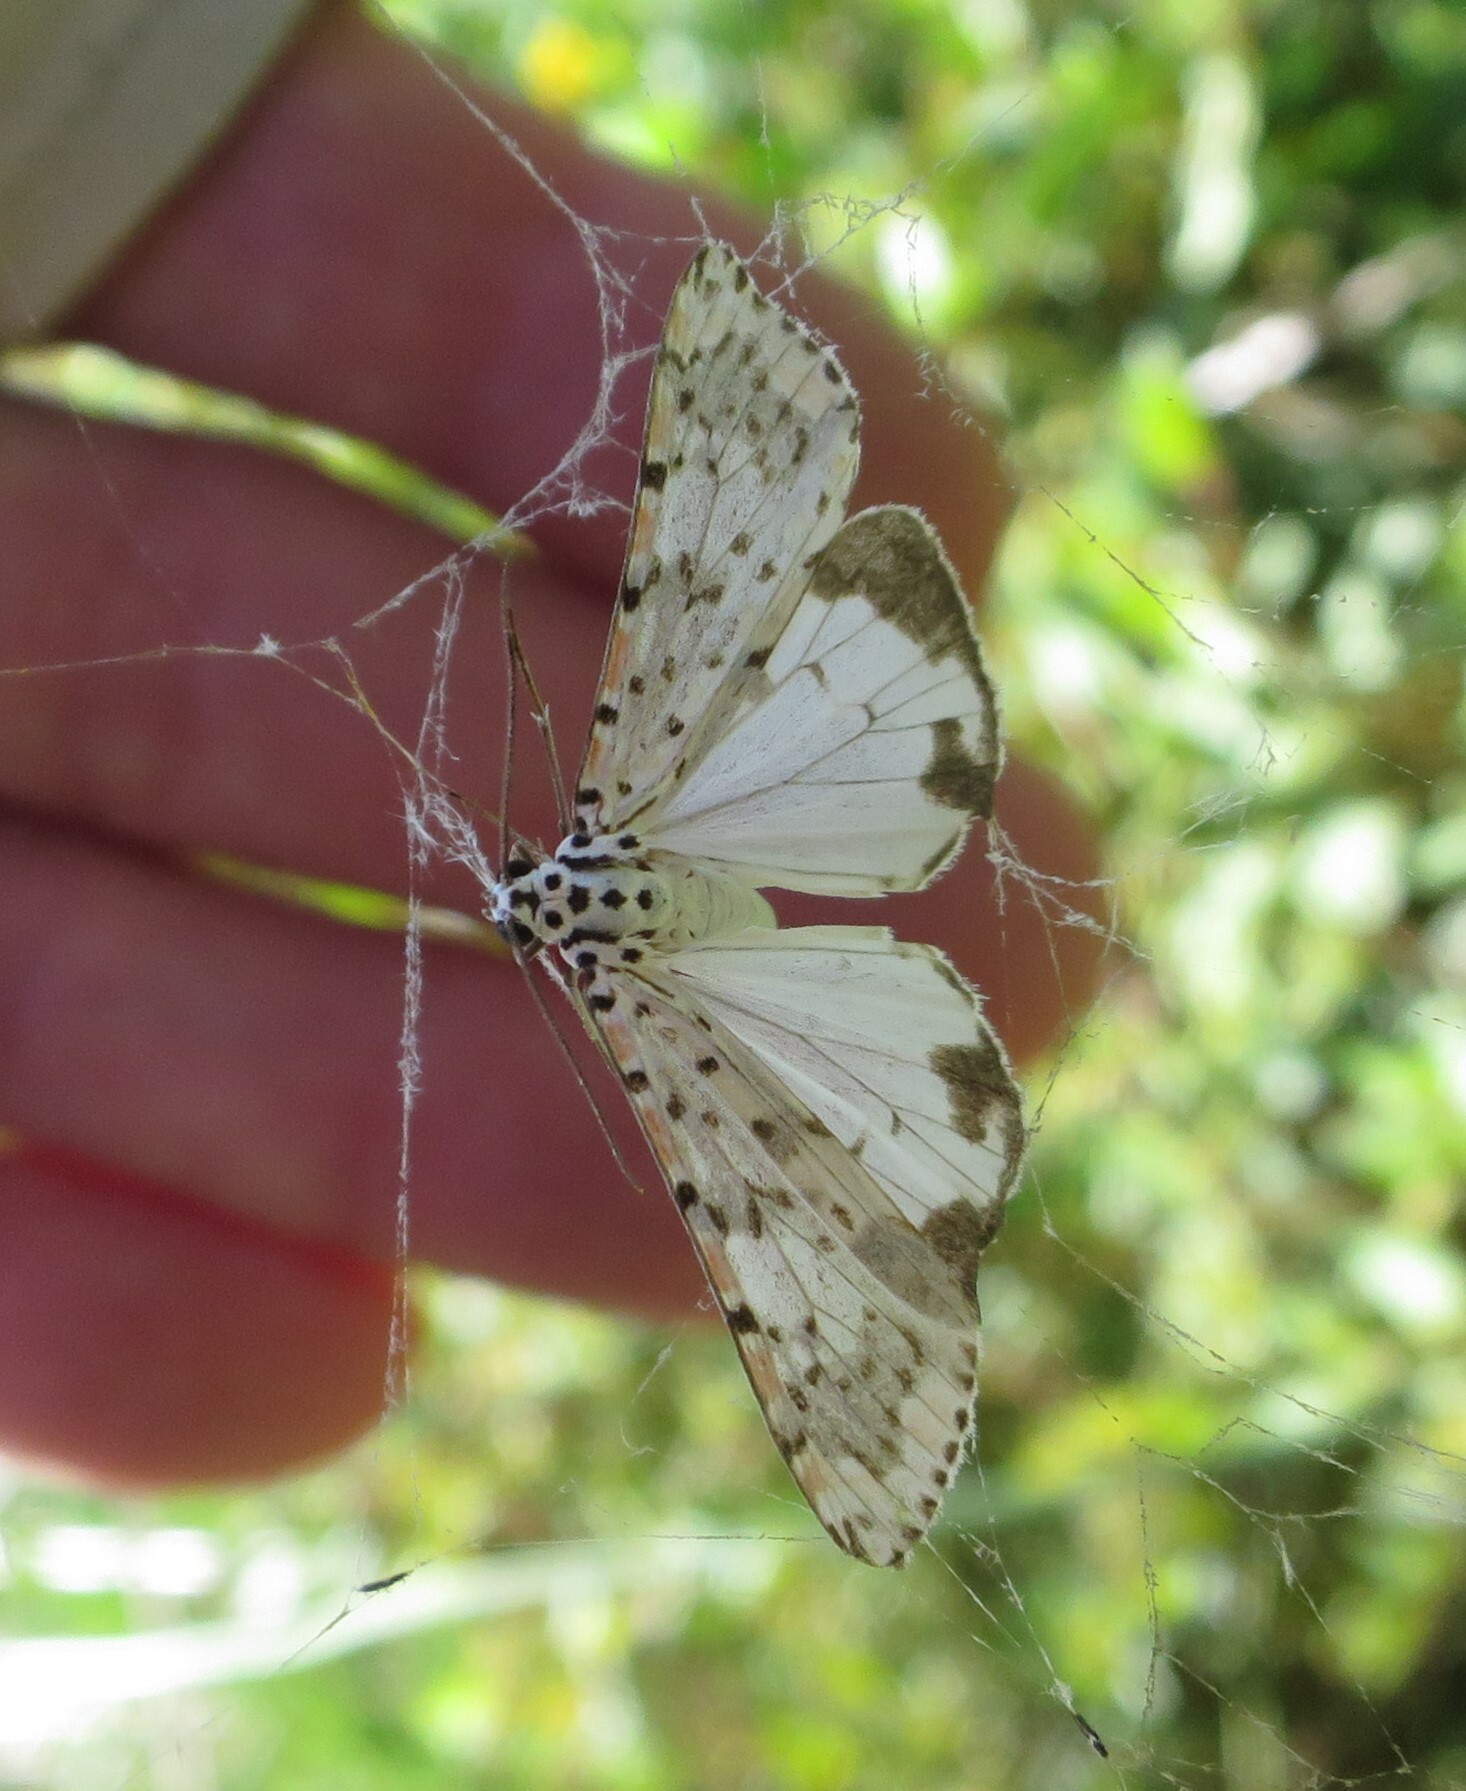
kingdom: Animalia
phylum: Arthropoda
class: Insecta
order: Lepidoptera
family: Erebidae
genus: Utetheisa
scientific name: Utetheisa pulchelloides
